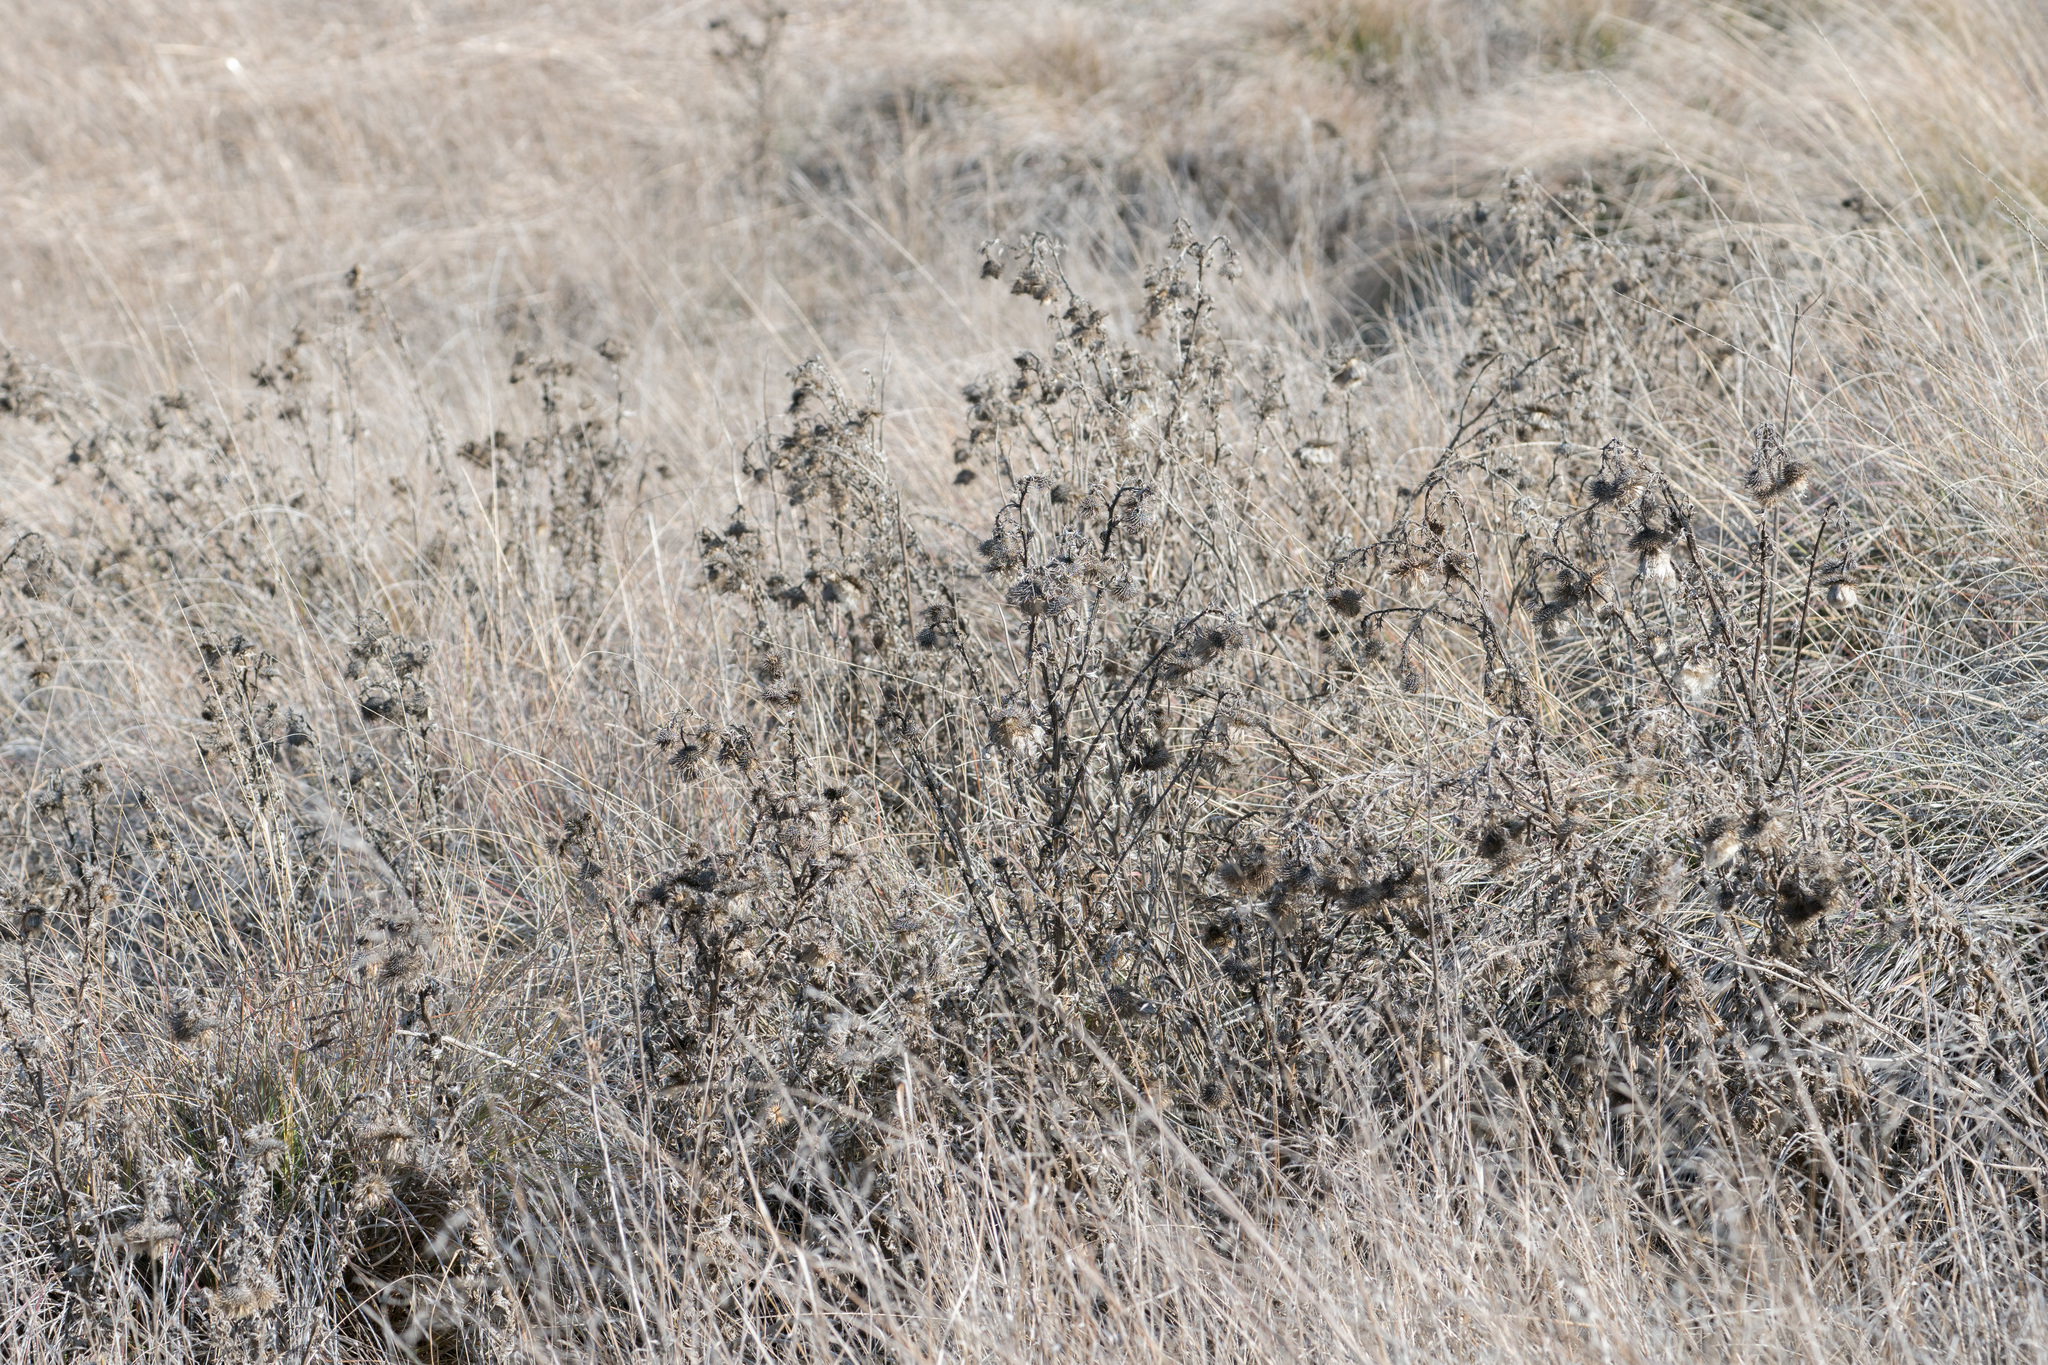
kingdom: Plantae
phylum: Tracheophyta
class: Magnoliopsida
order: Asterales
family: Asteraceae
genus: Cirsium
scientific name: Cirsium vulgare
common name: Bull thistle
